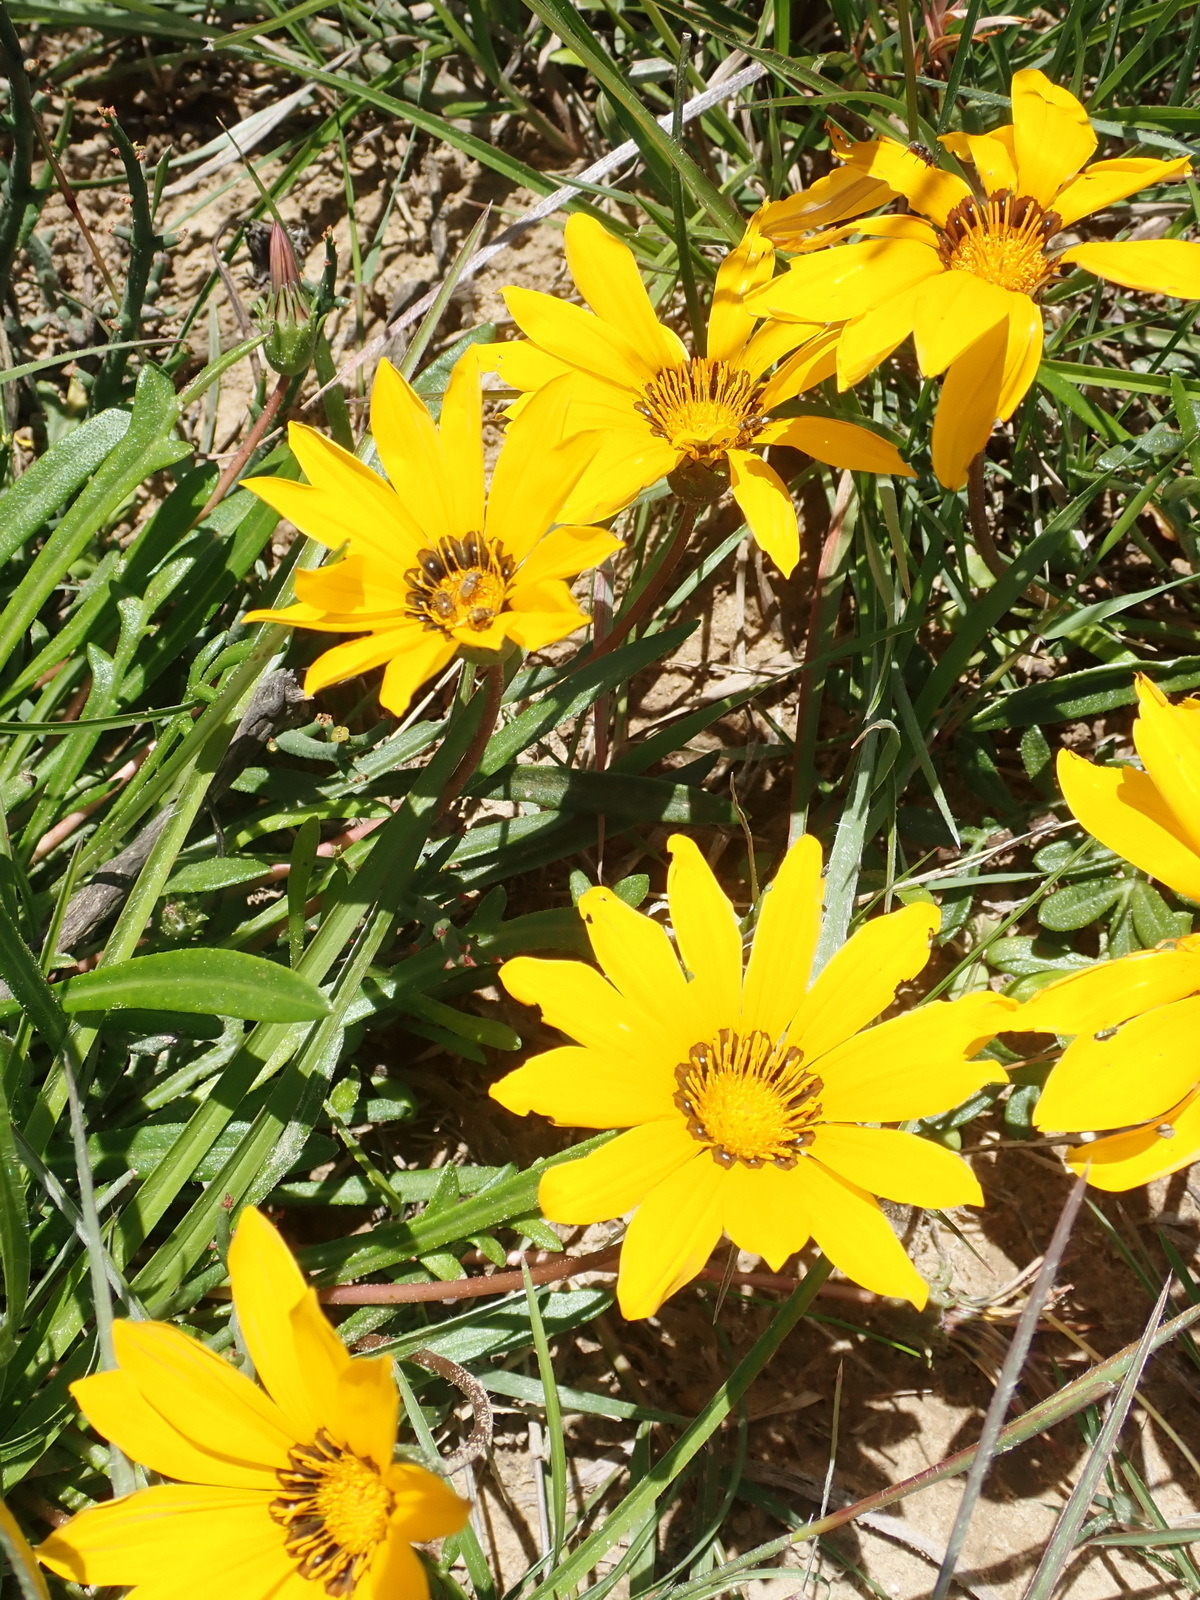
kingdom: Plantae
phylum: Tracheophyta
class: Magnoliopsida
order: Asterales
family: Asteraceae
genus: Gazania
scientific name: Gazania krebsiana
